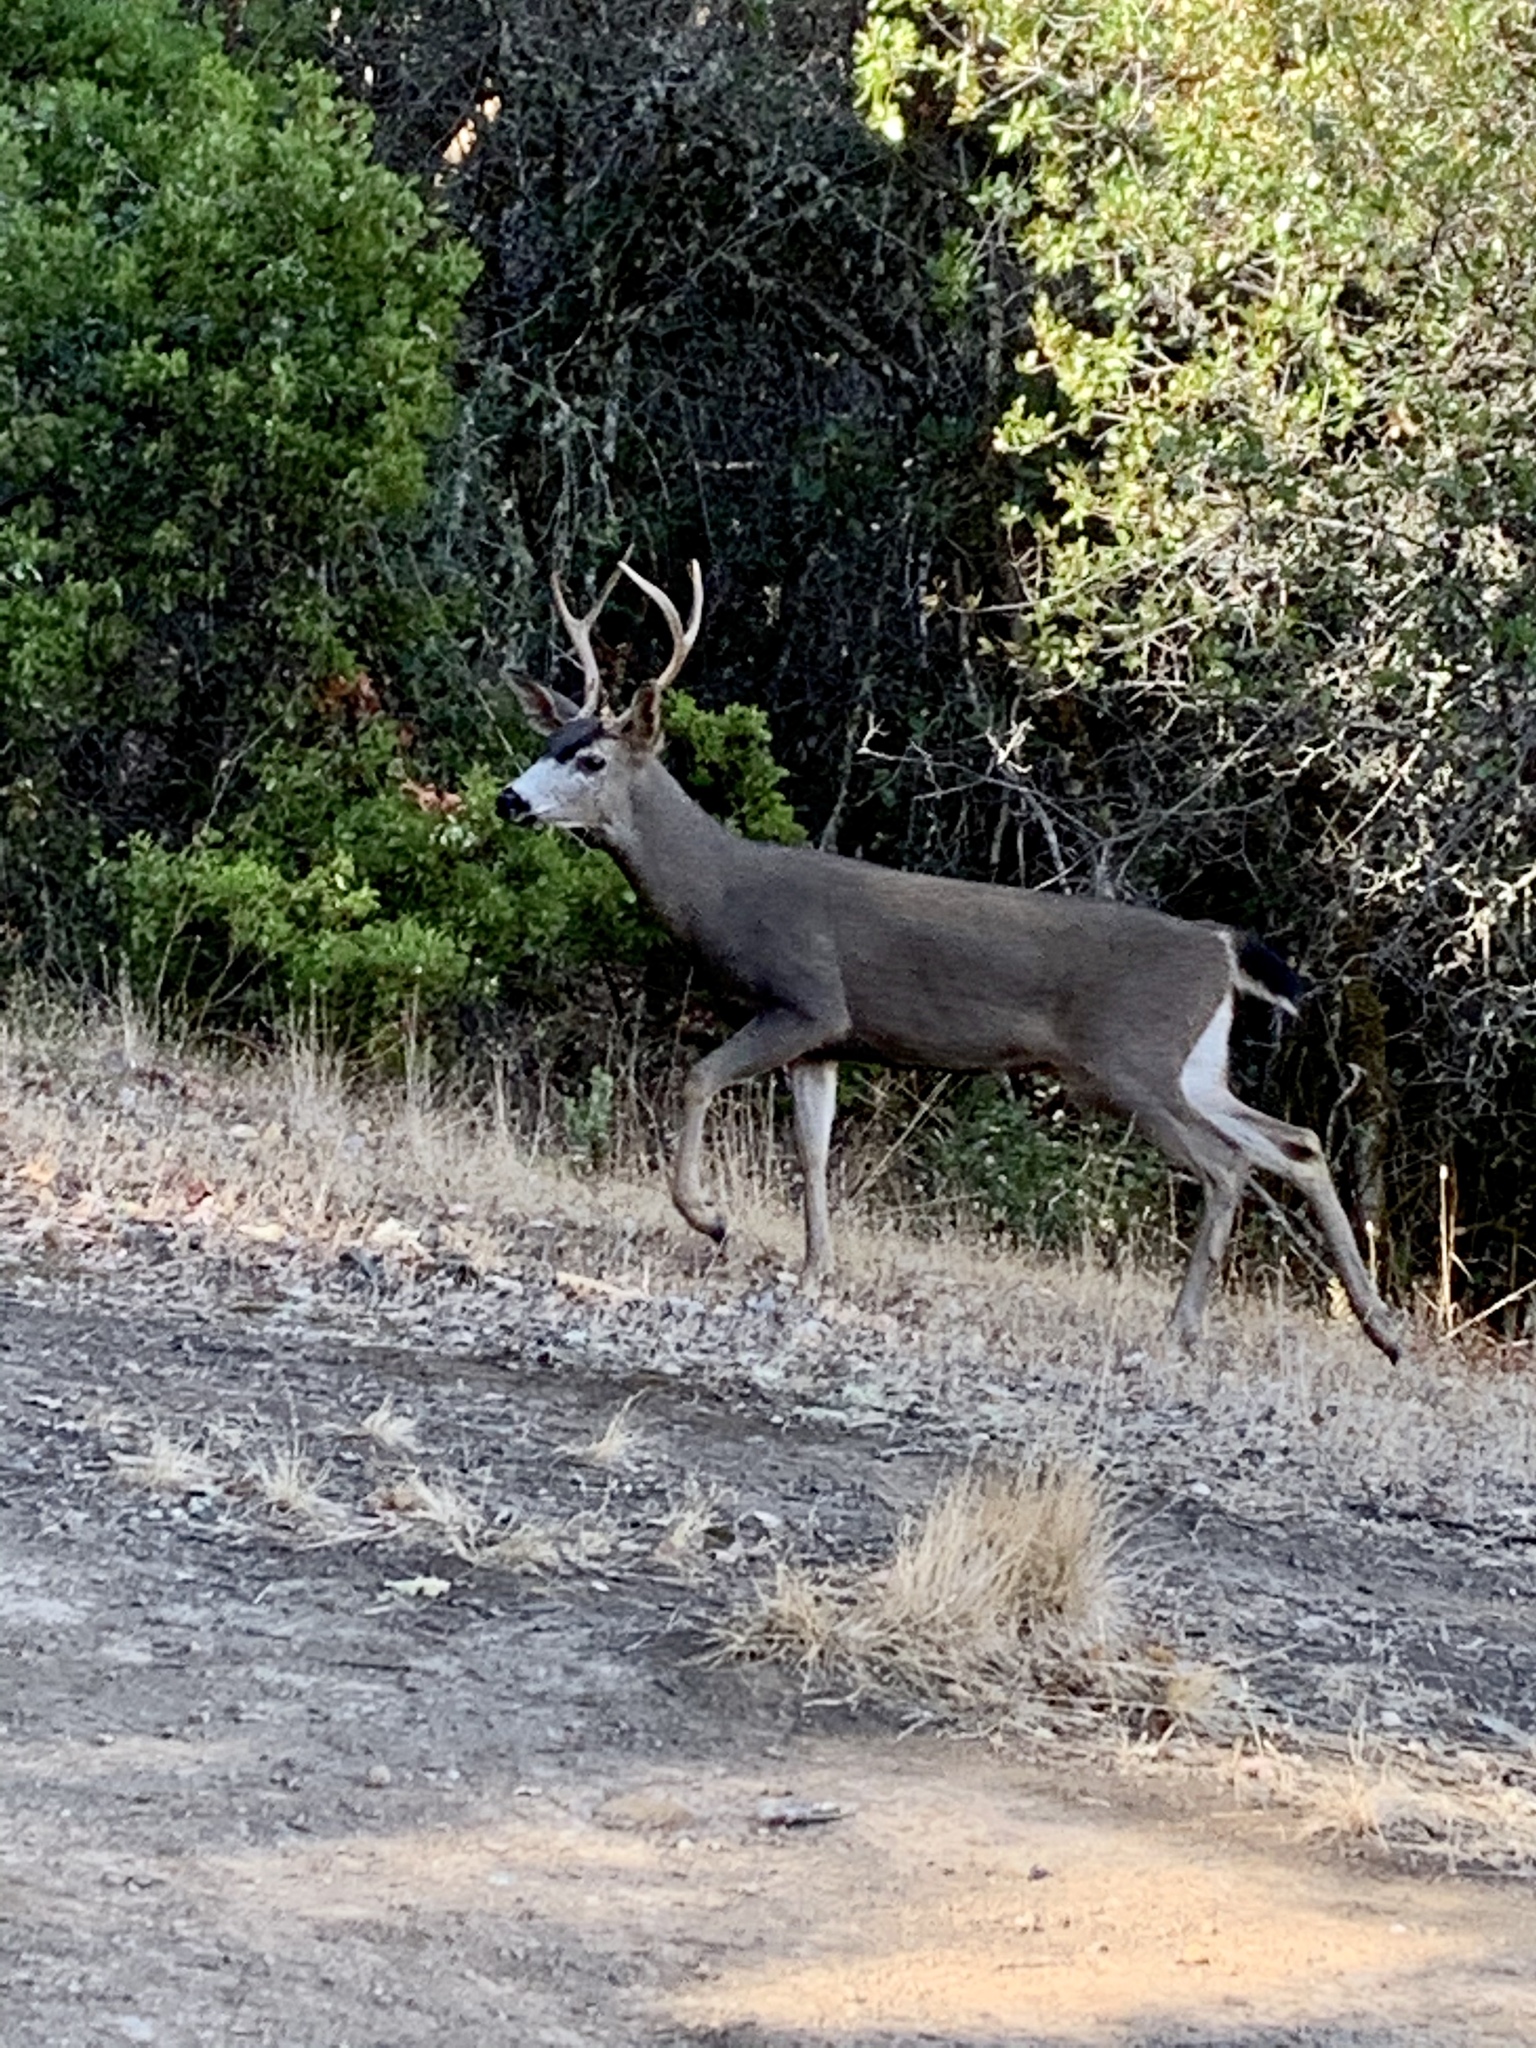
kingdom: Animalia
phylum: Chordata
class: Mammalia
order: Artiodactyla
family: Cervidae
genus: Odocoileus
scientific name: Odocoileus hemionus
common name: Mule deer
